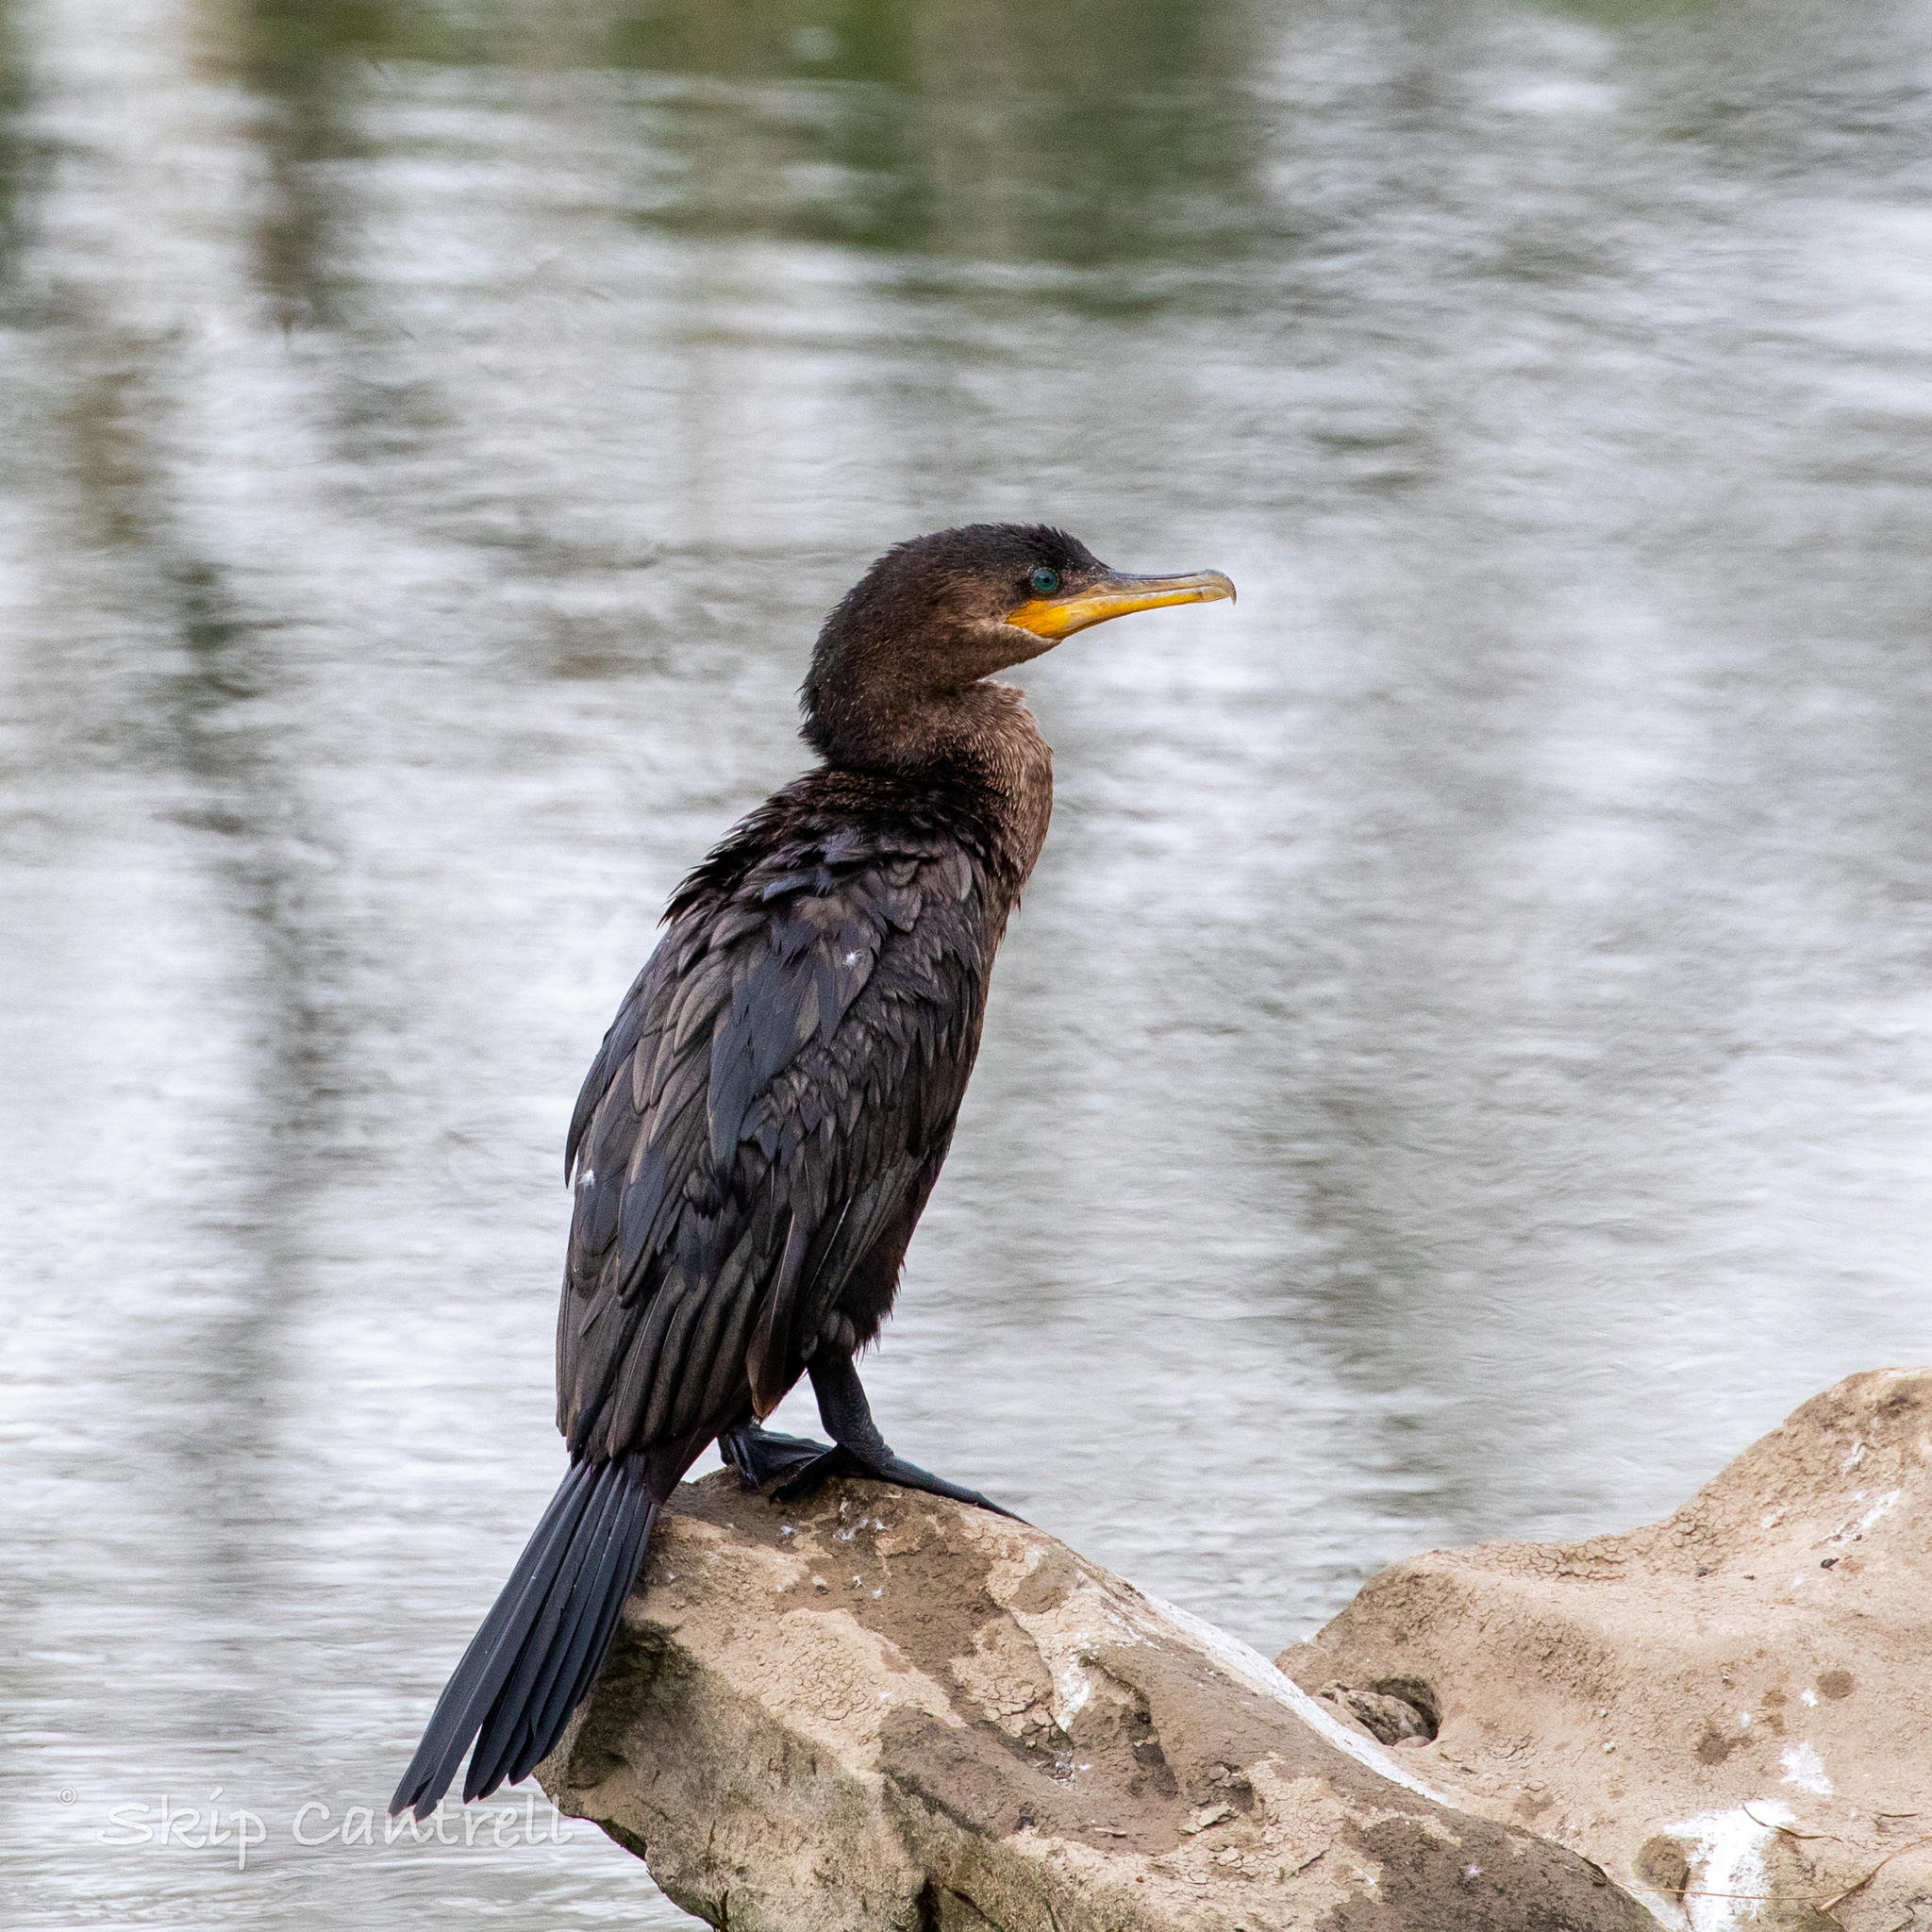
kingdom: Animalia
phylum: Chordata
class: Aves
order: Suliformes
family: Phalacrocoracidae
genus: Phalacrocorax
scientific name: Phalacrocorax brasilianus
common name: Neotropic cormorant
